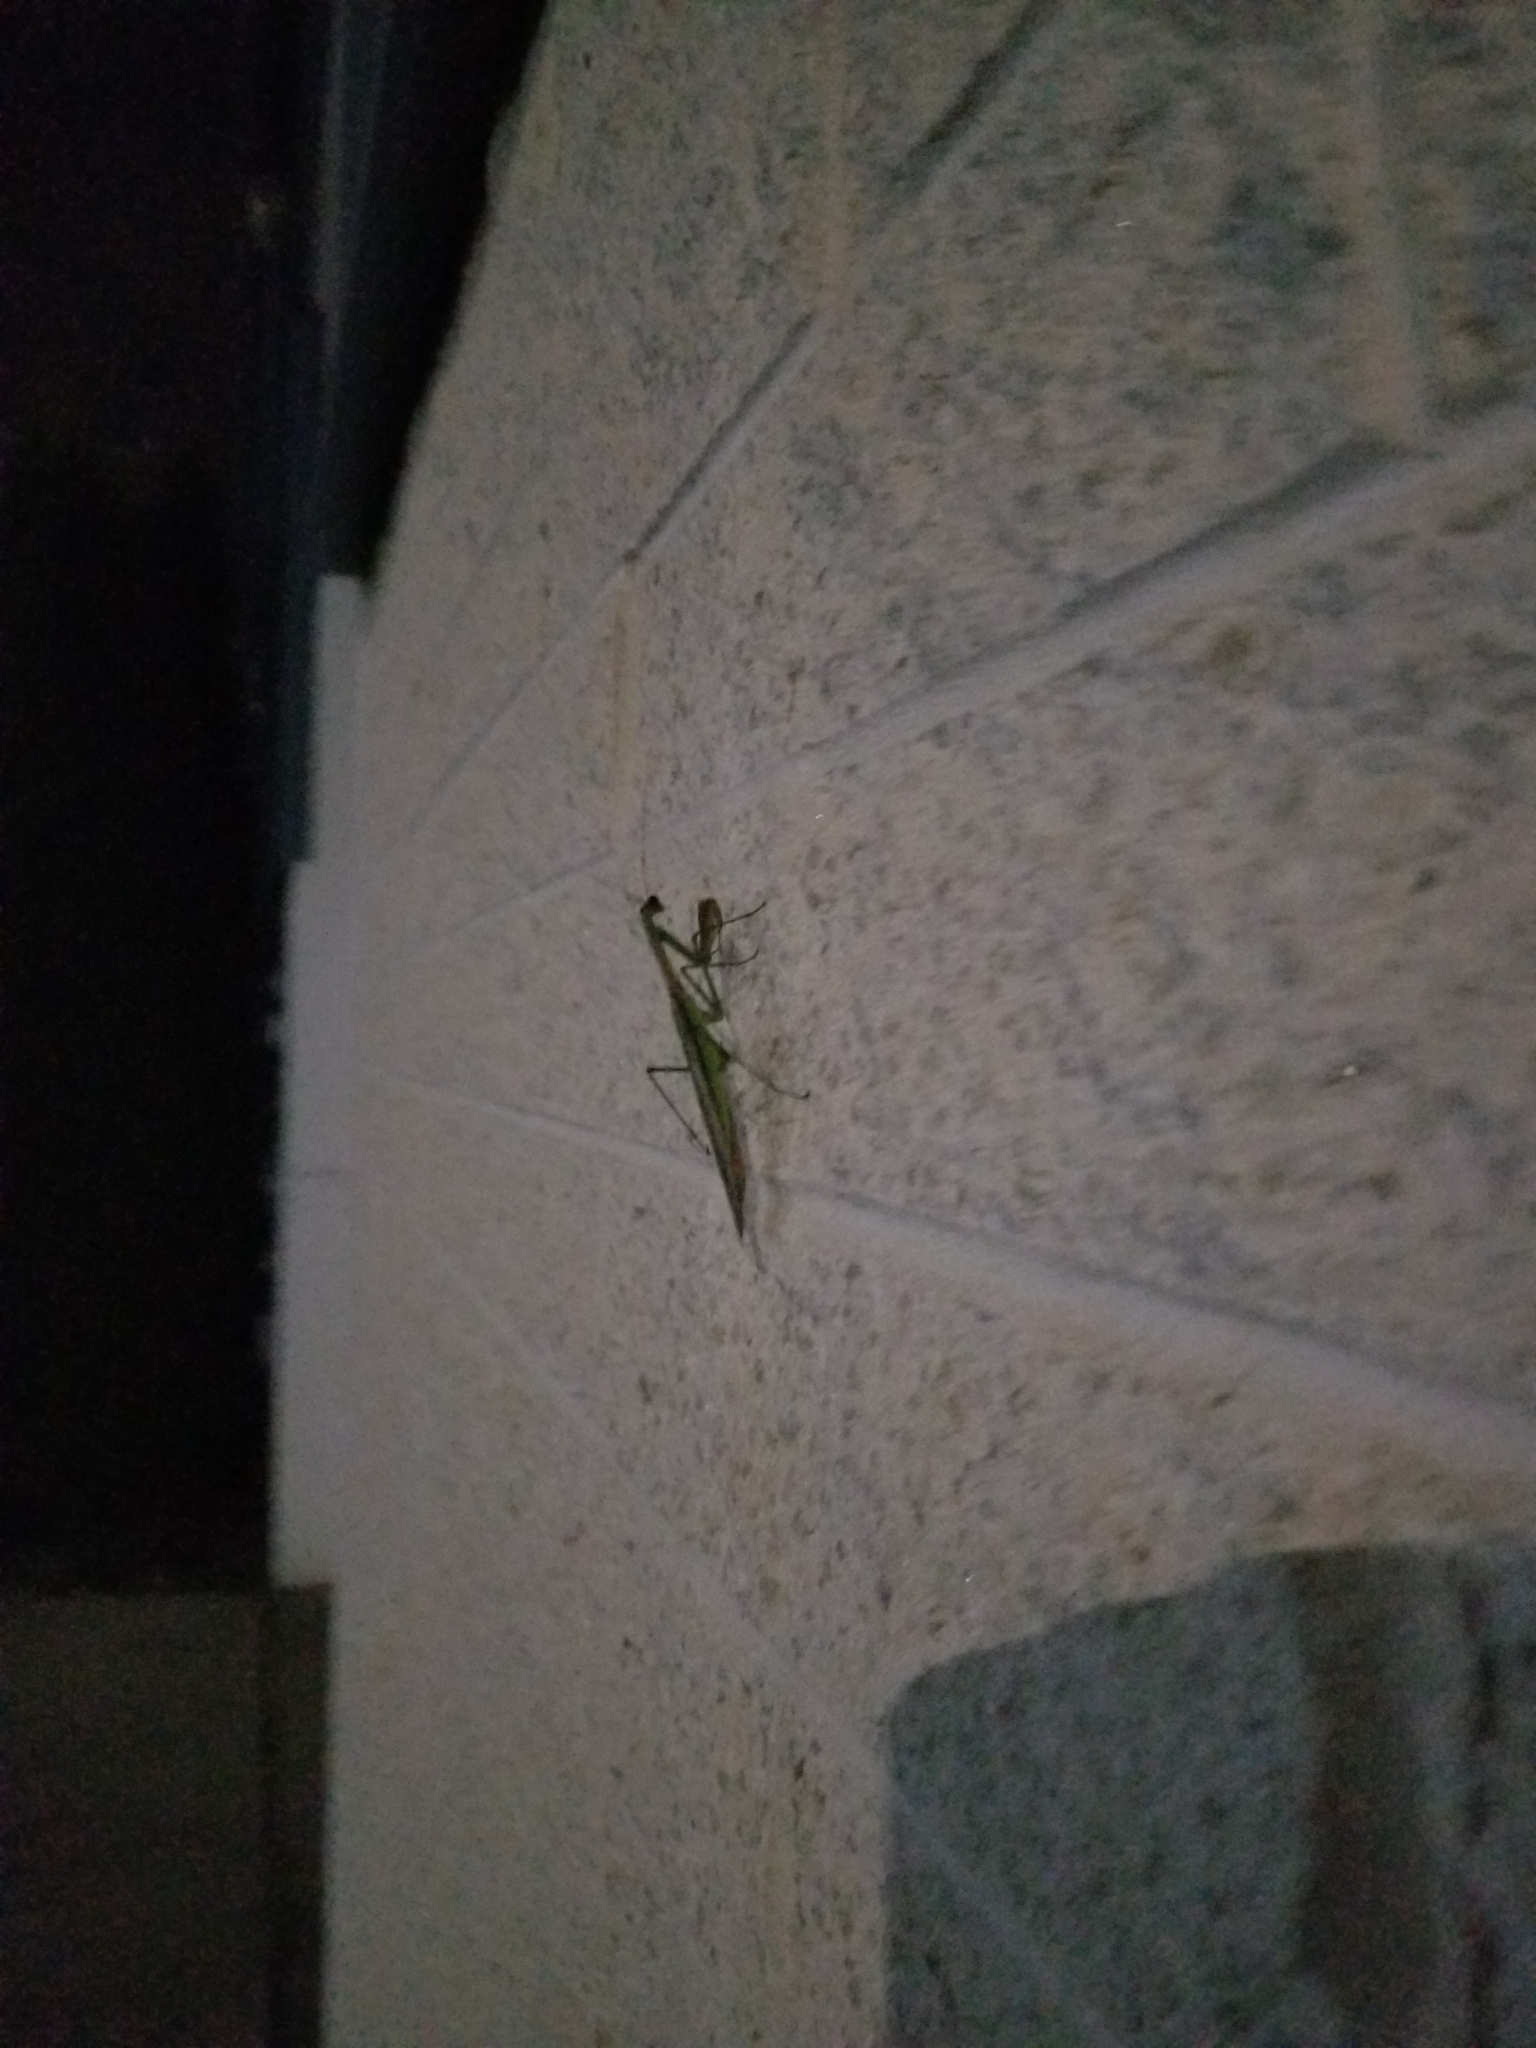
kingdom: Animalia
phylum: Arthropoda
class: Insecta
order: Mantodea
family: Mantidae
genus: Tenodera
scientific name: Tenodera sinensis
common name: Chinese mantis
